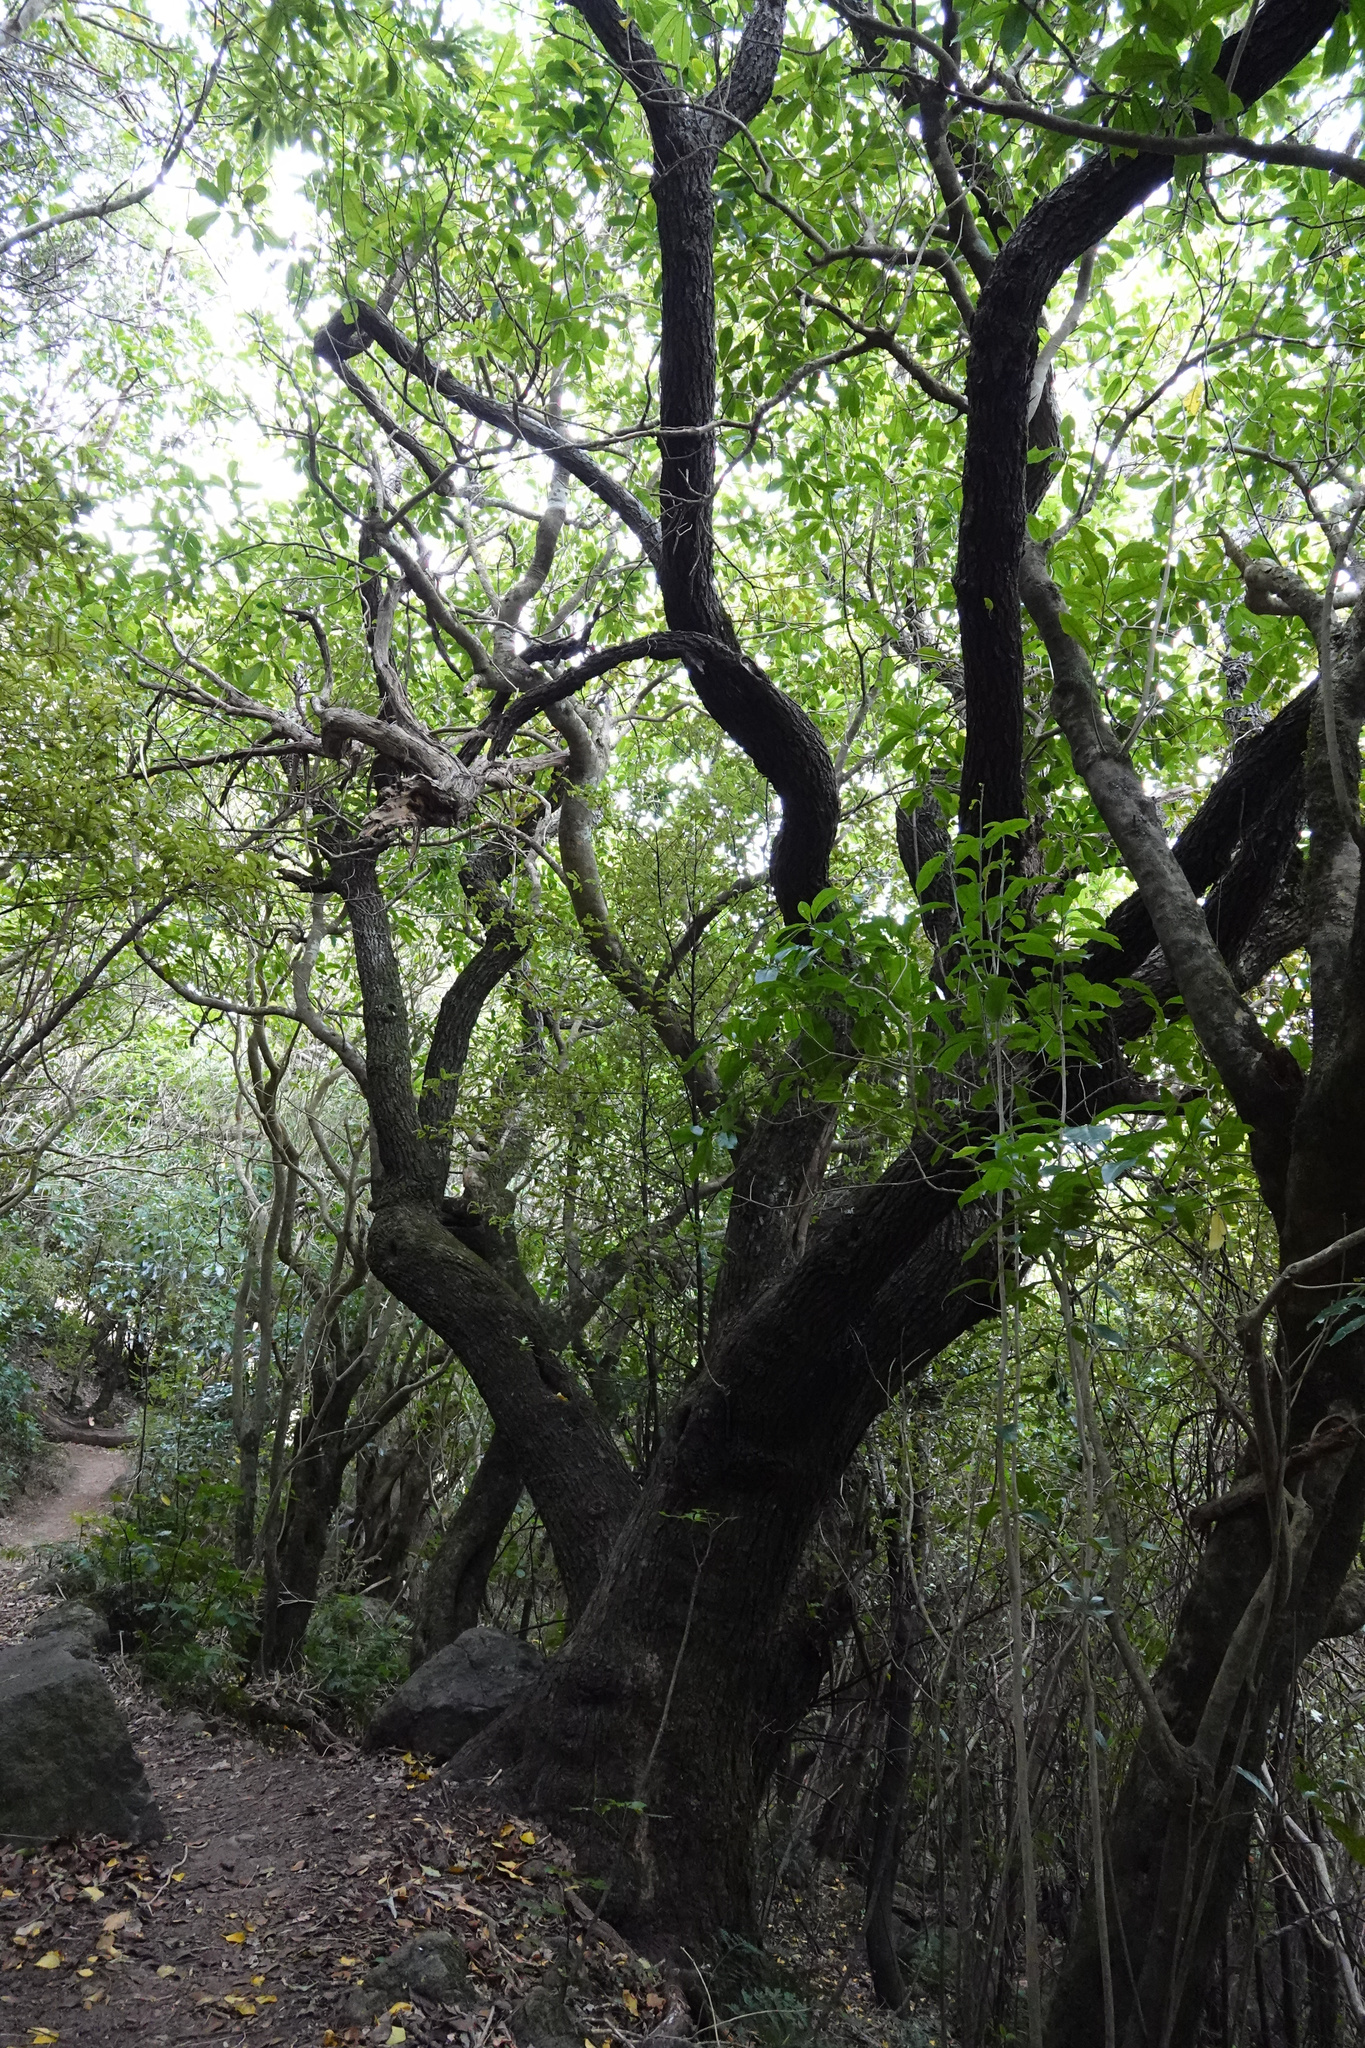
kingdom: Plantae
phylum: Tracheophyta
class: Magnoliopsida
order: Apiales
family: Griseliniaceae
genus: Griselinia
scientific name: Griselinia littoralis
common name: New zealand broadleaf
